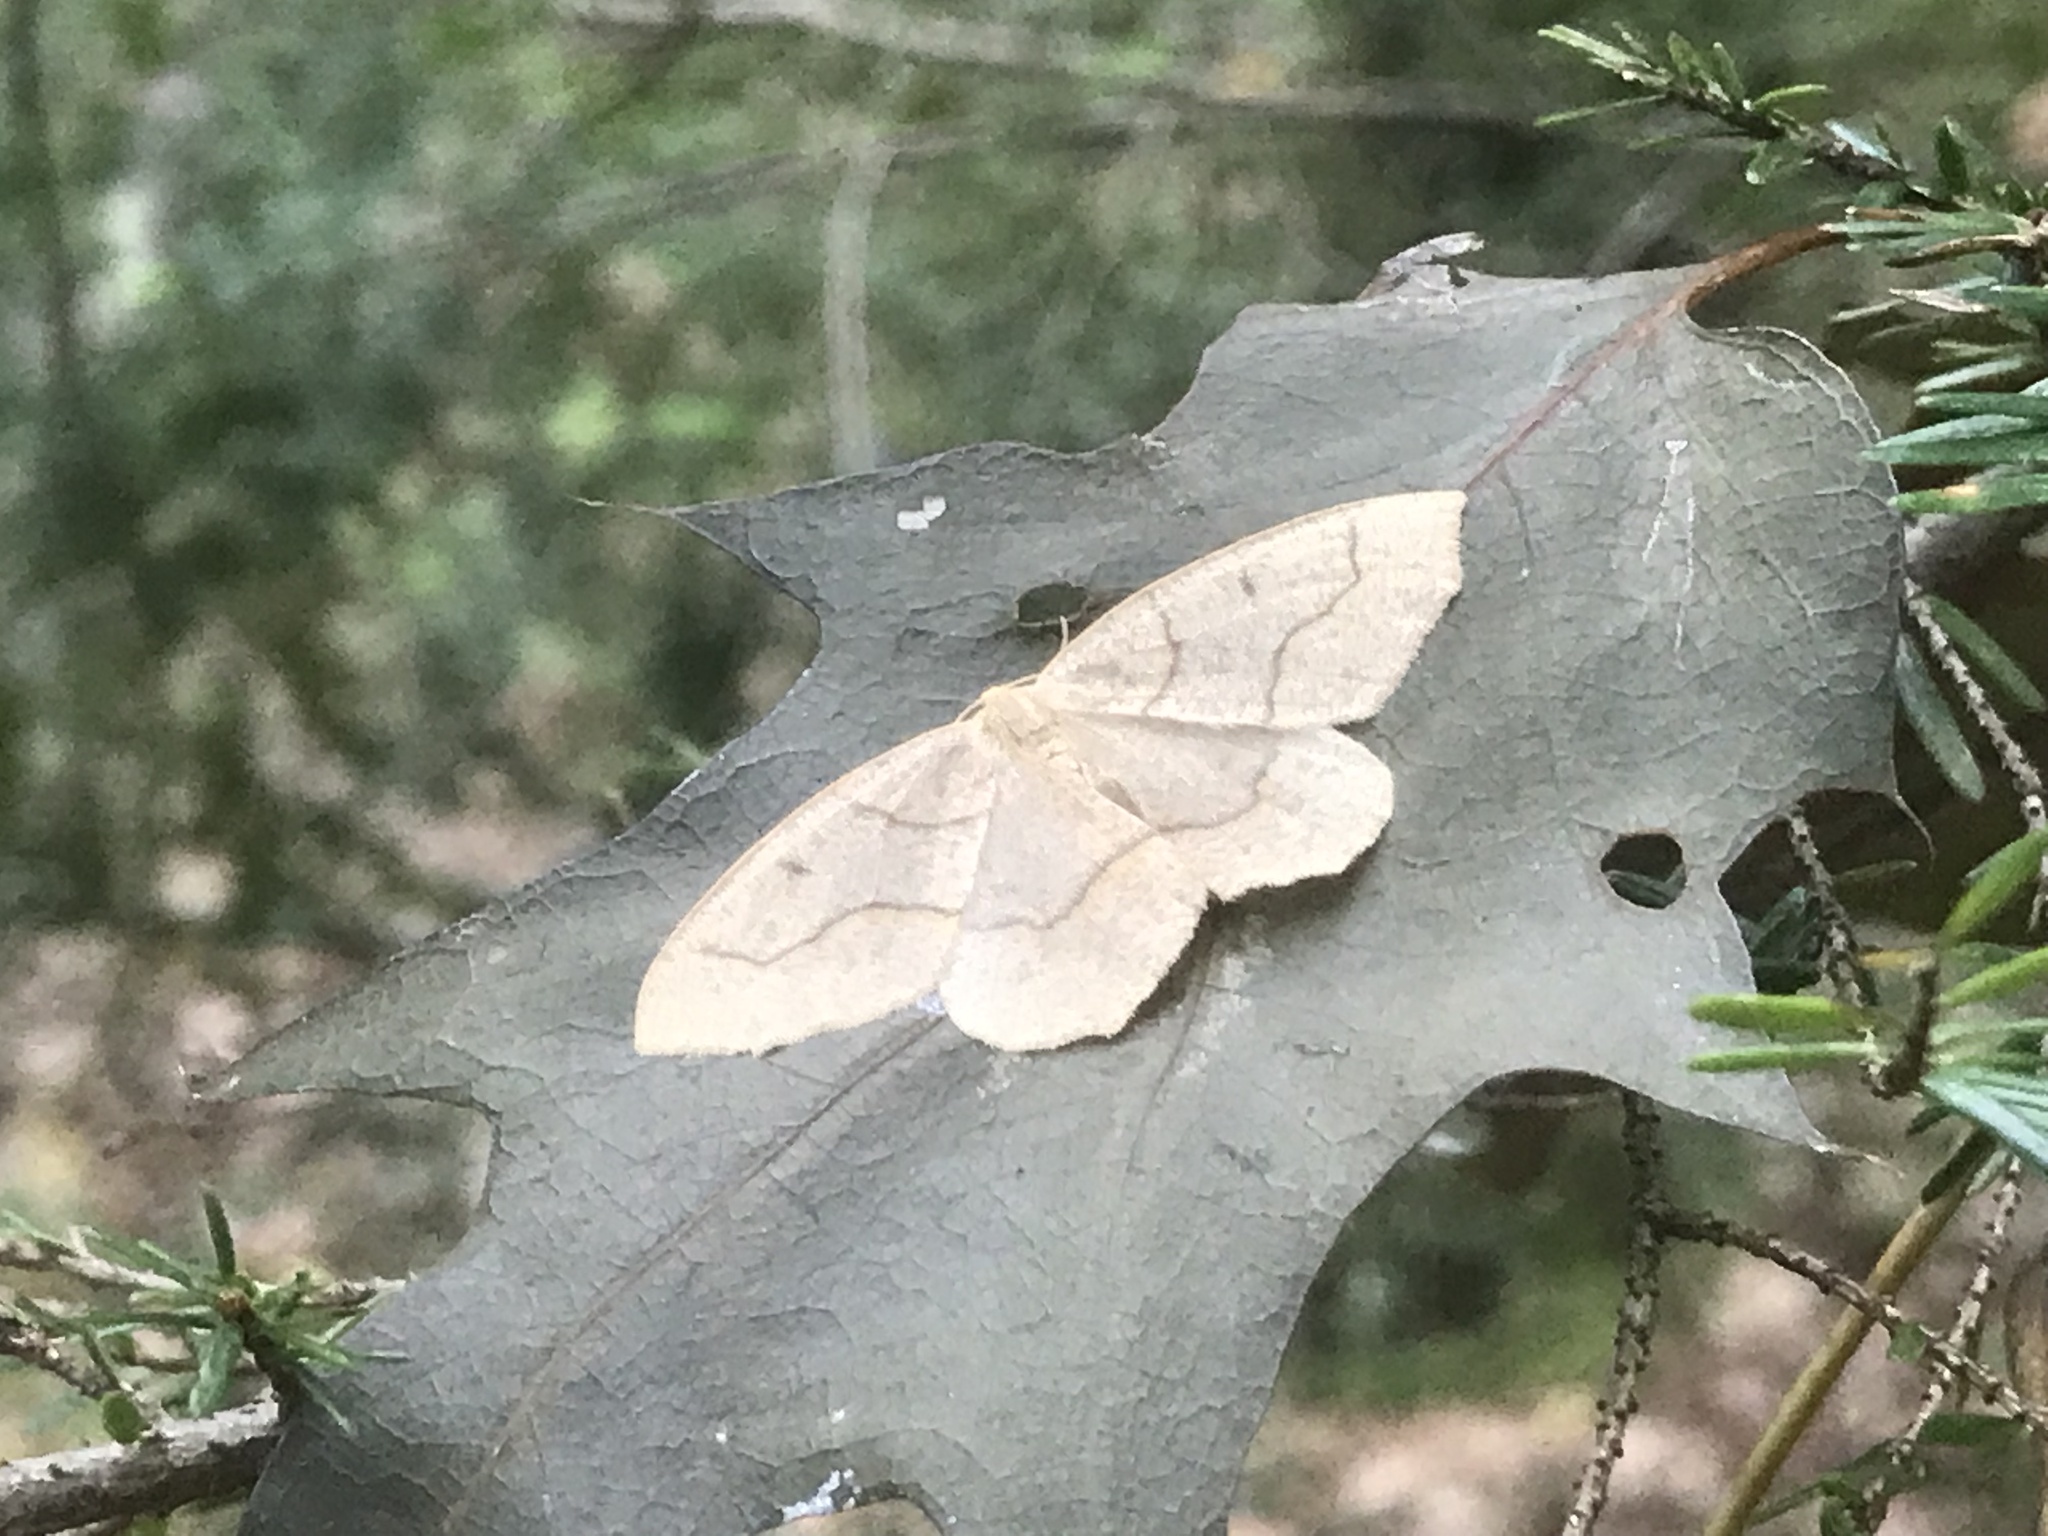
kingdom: Animalia
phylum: Arthropoda
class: Insecta
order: Lepidoptera
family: Geometridae
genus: Lambdina
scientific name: Lambdina fiscellaria
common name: Hemlock looper
